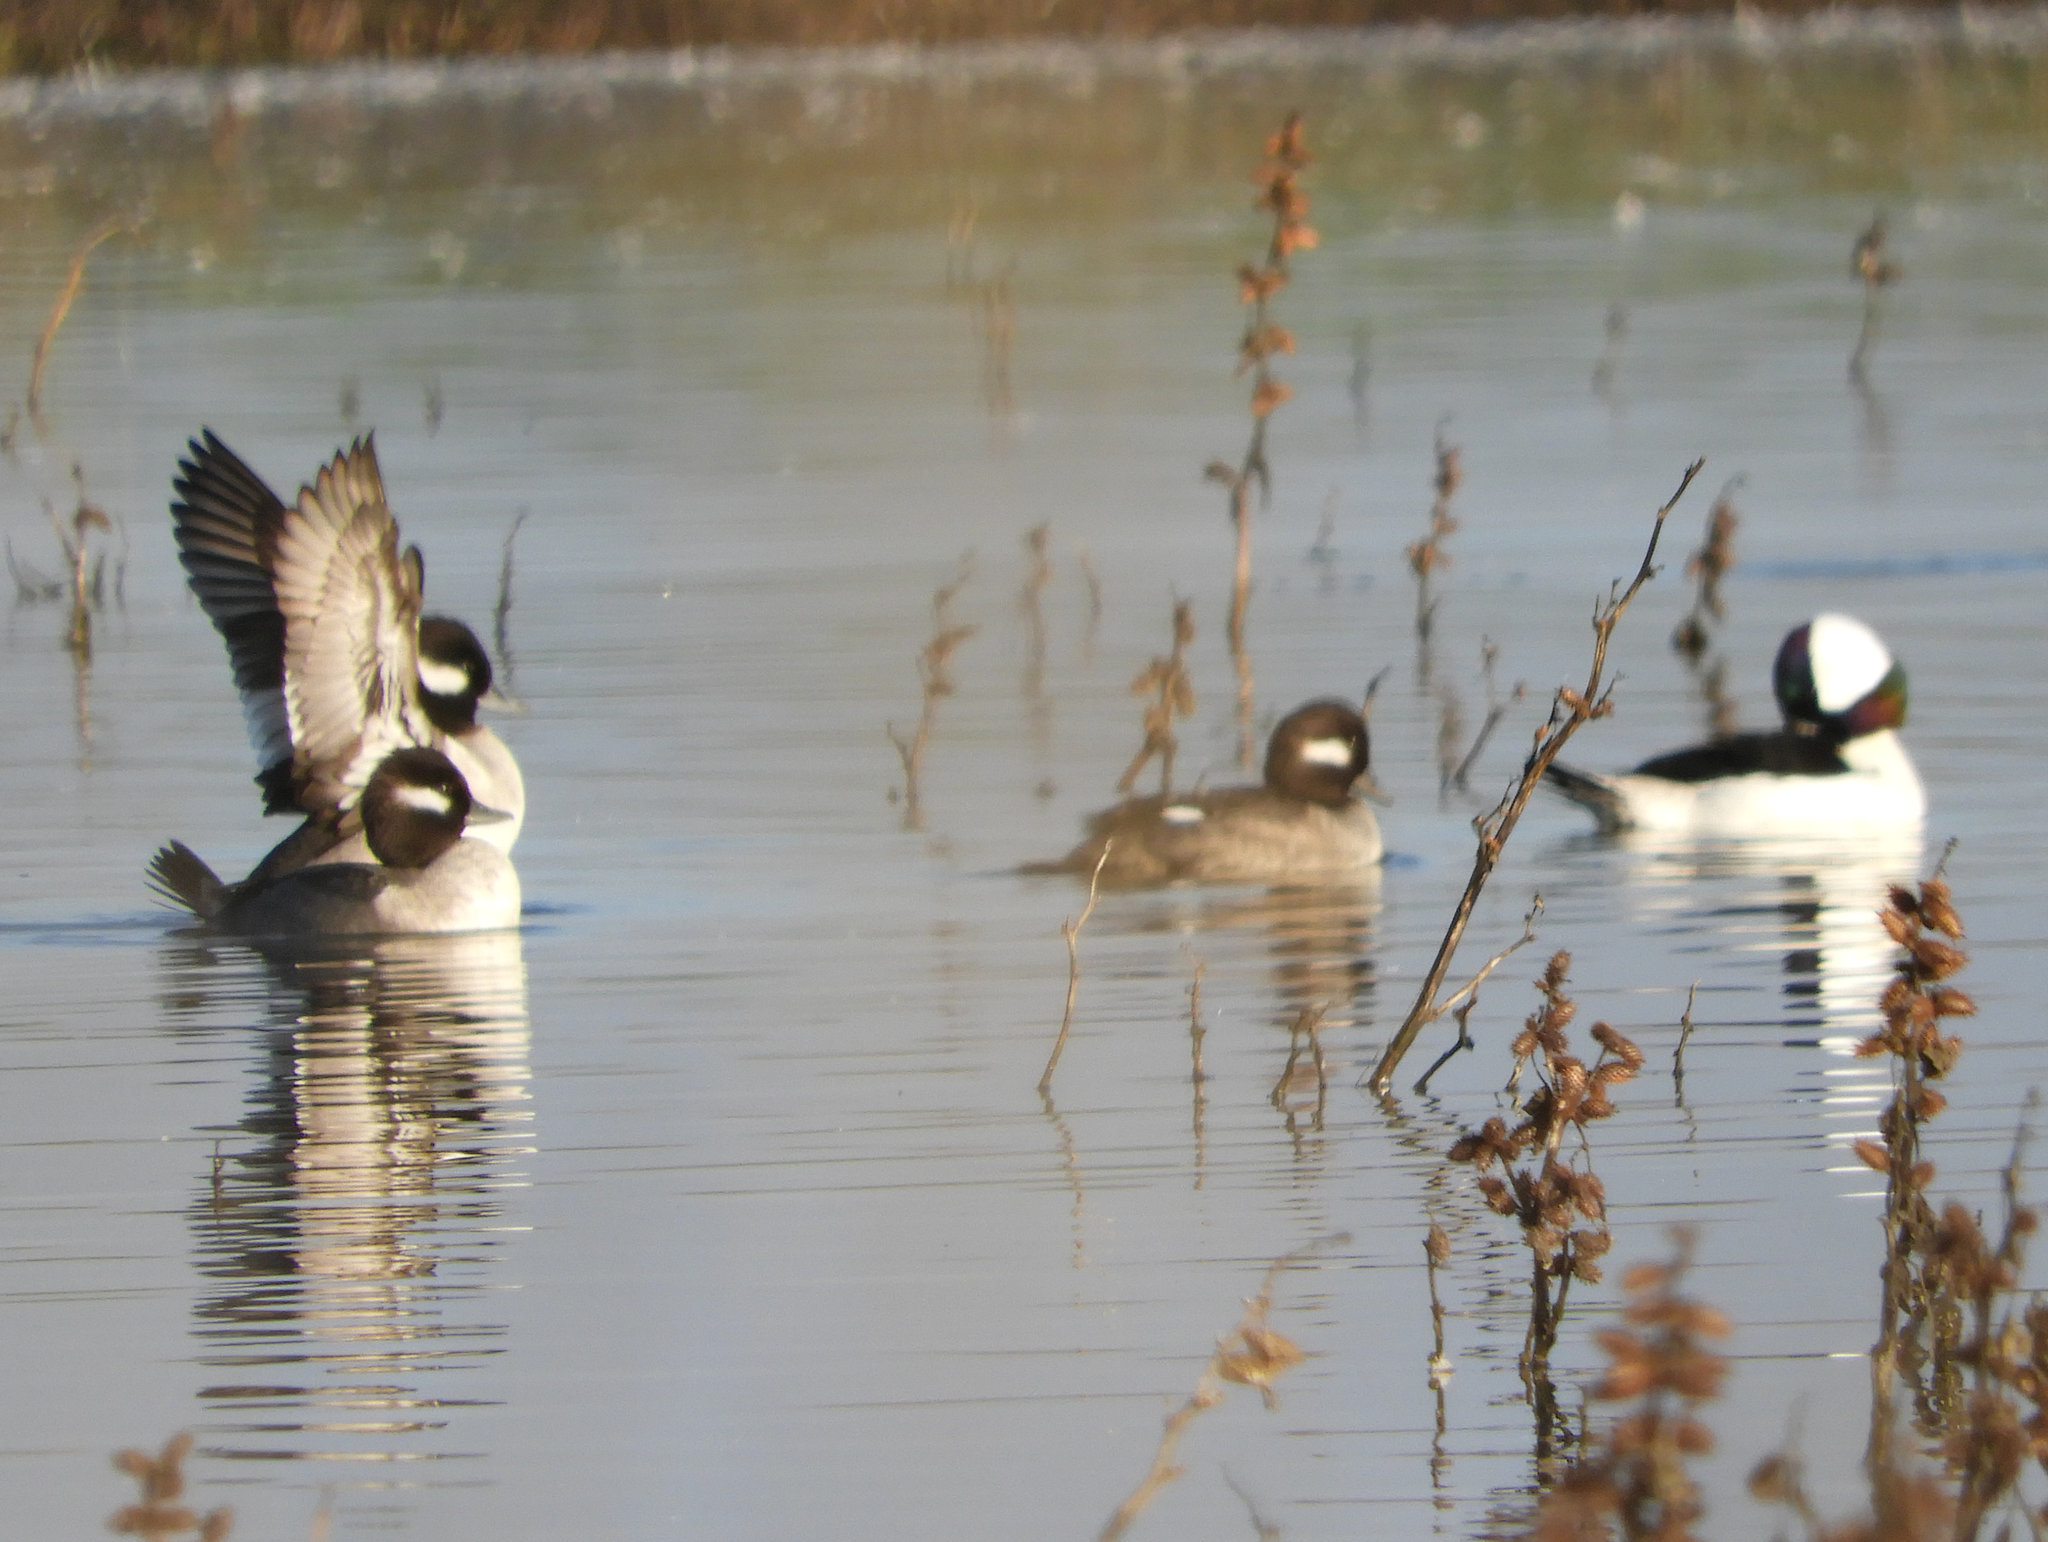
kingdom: Animalia
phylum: Chordata
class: Aves
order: Anseriformes
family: Anatidae
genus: Bucephala
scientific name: Bucephala albeola
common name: Bufflehead
